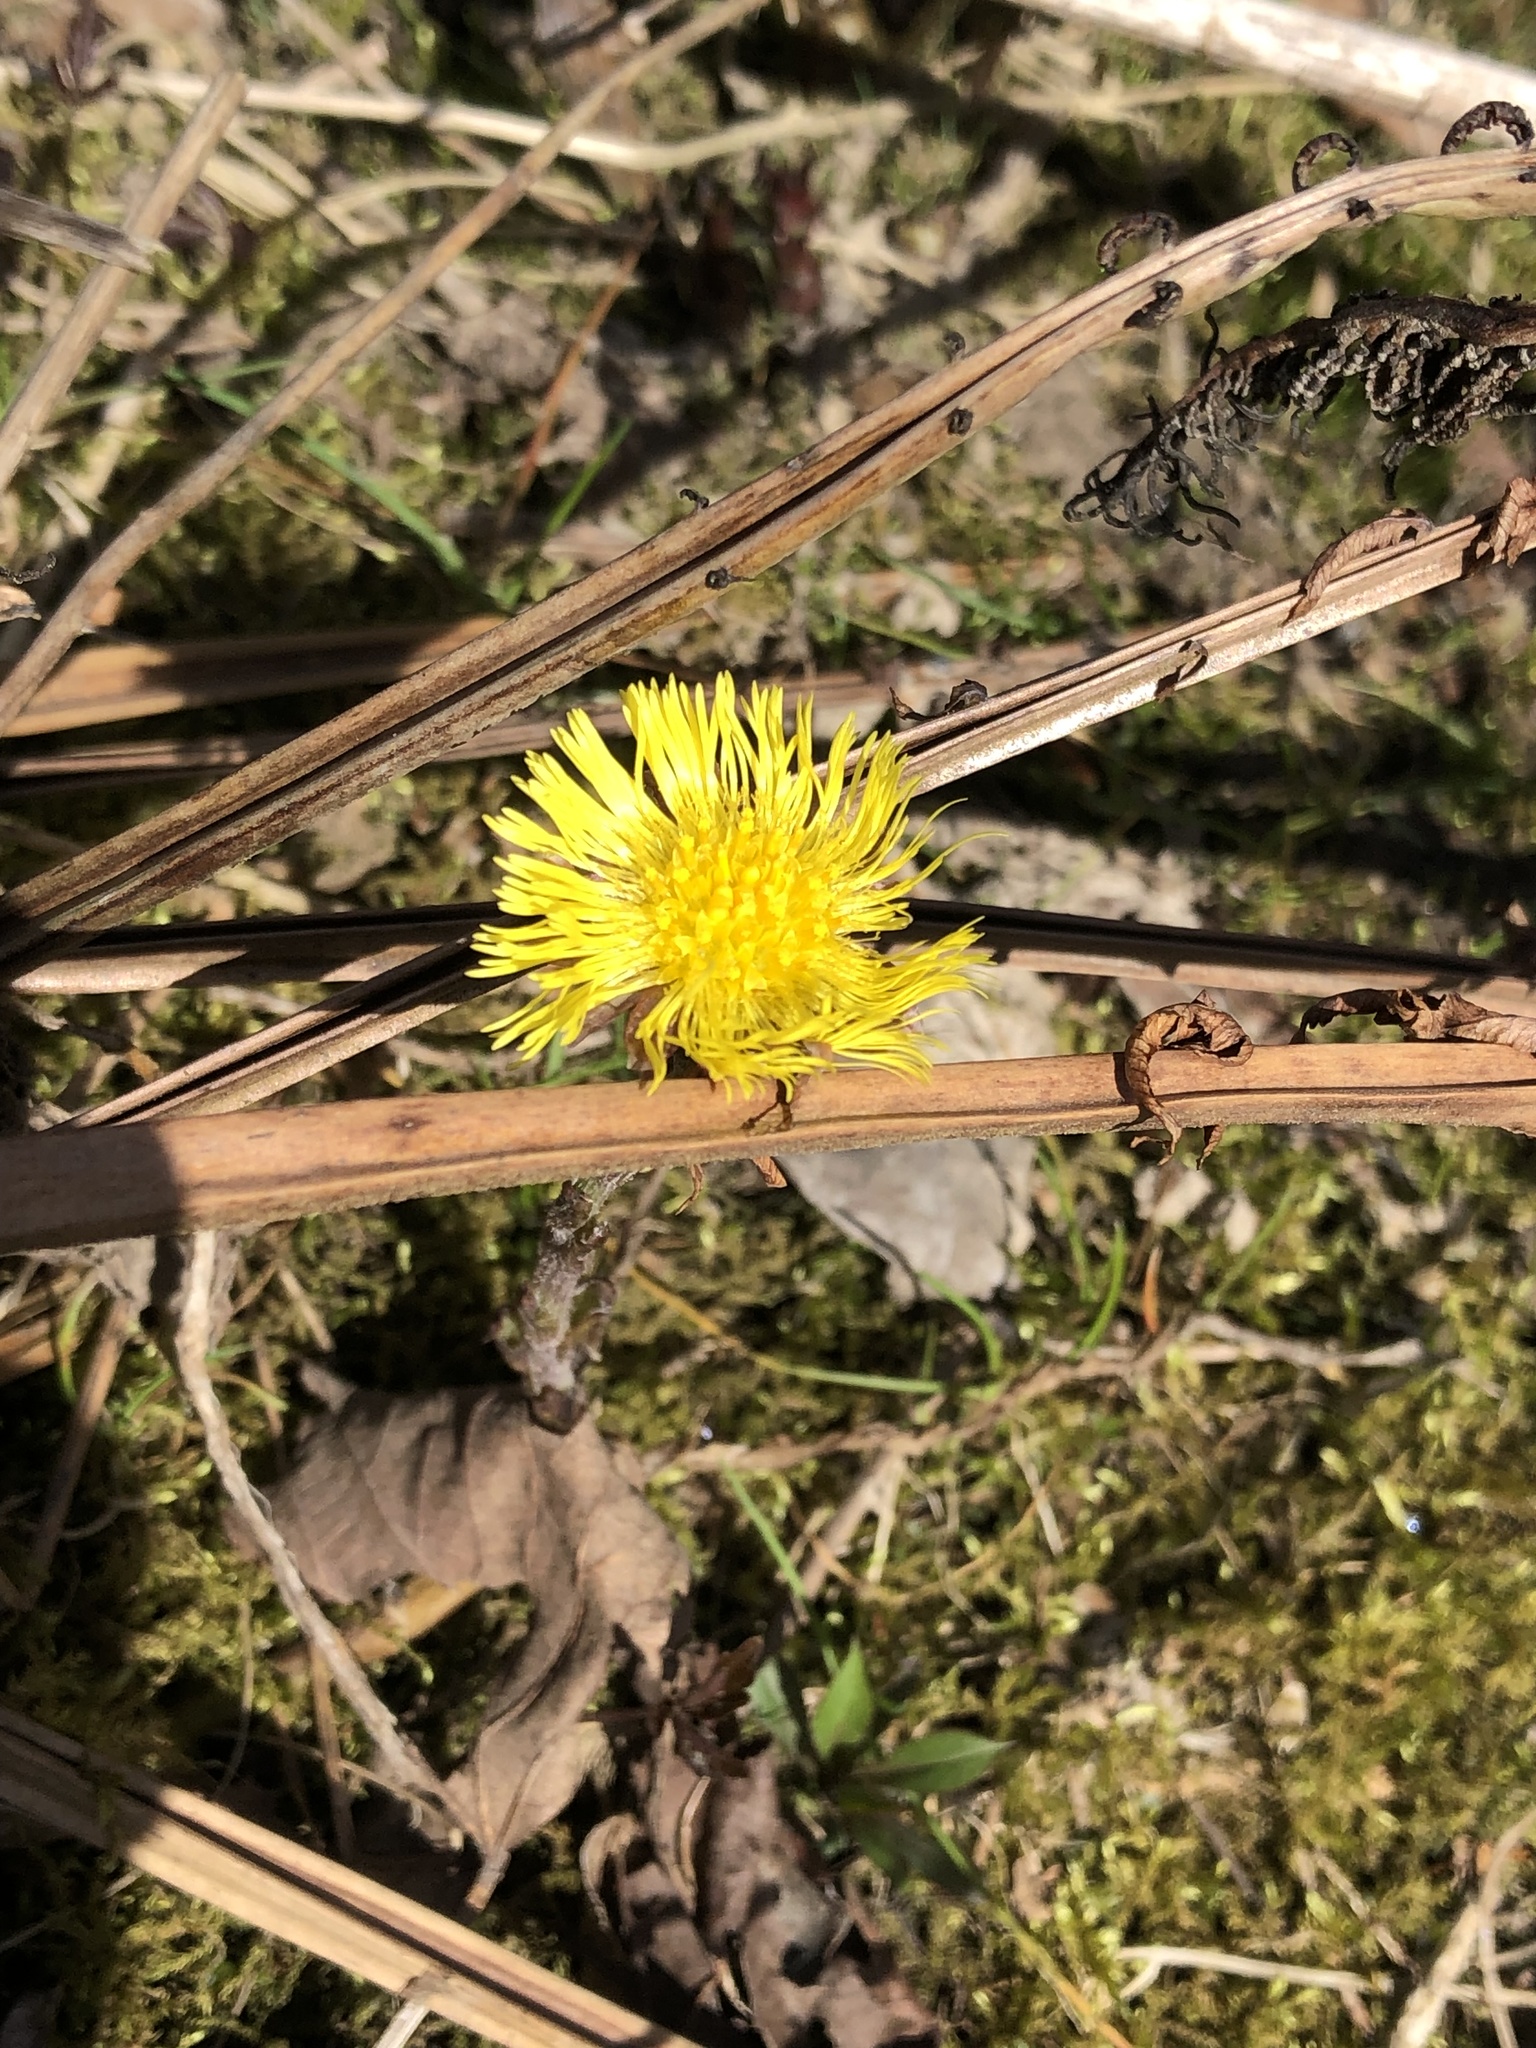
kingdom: Plantae
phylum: Tracheophyta
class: Magnoliopsida
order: Asterales
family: Asteraceae
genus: Tussilago
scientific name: Tussilago farfara
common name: Coltsfoot
